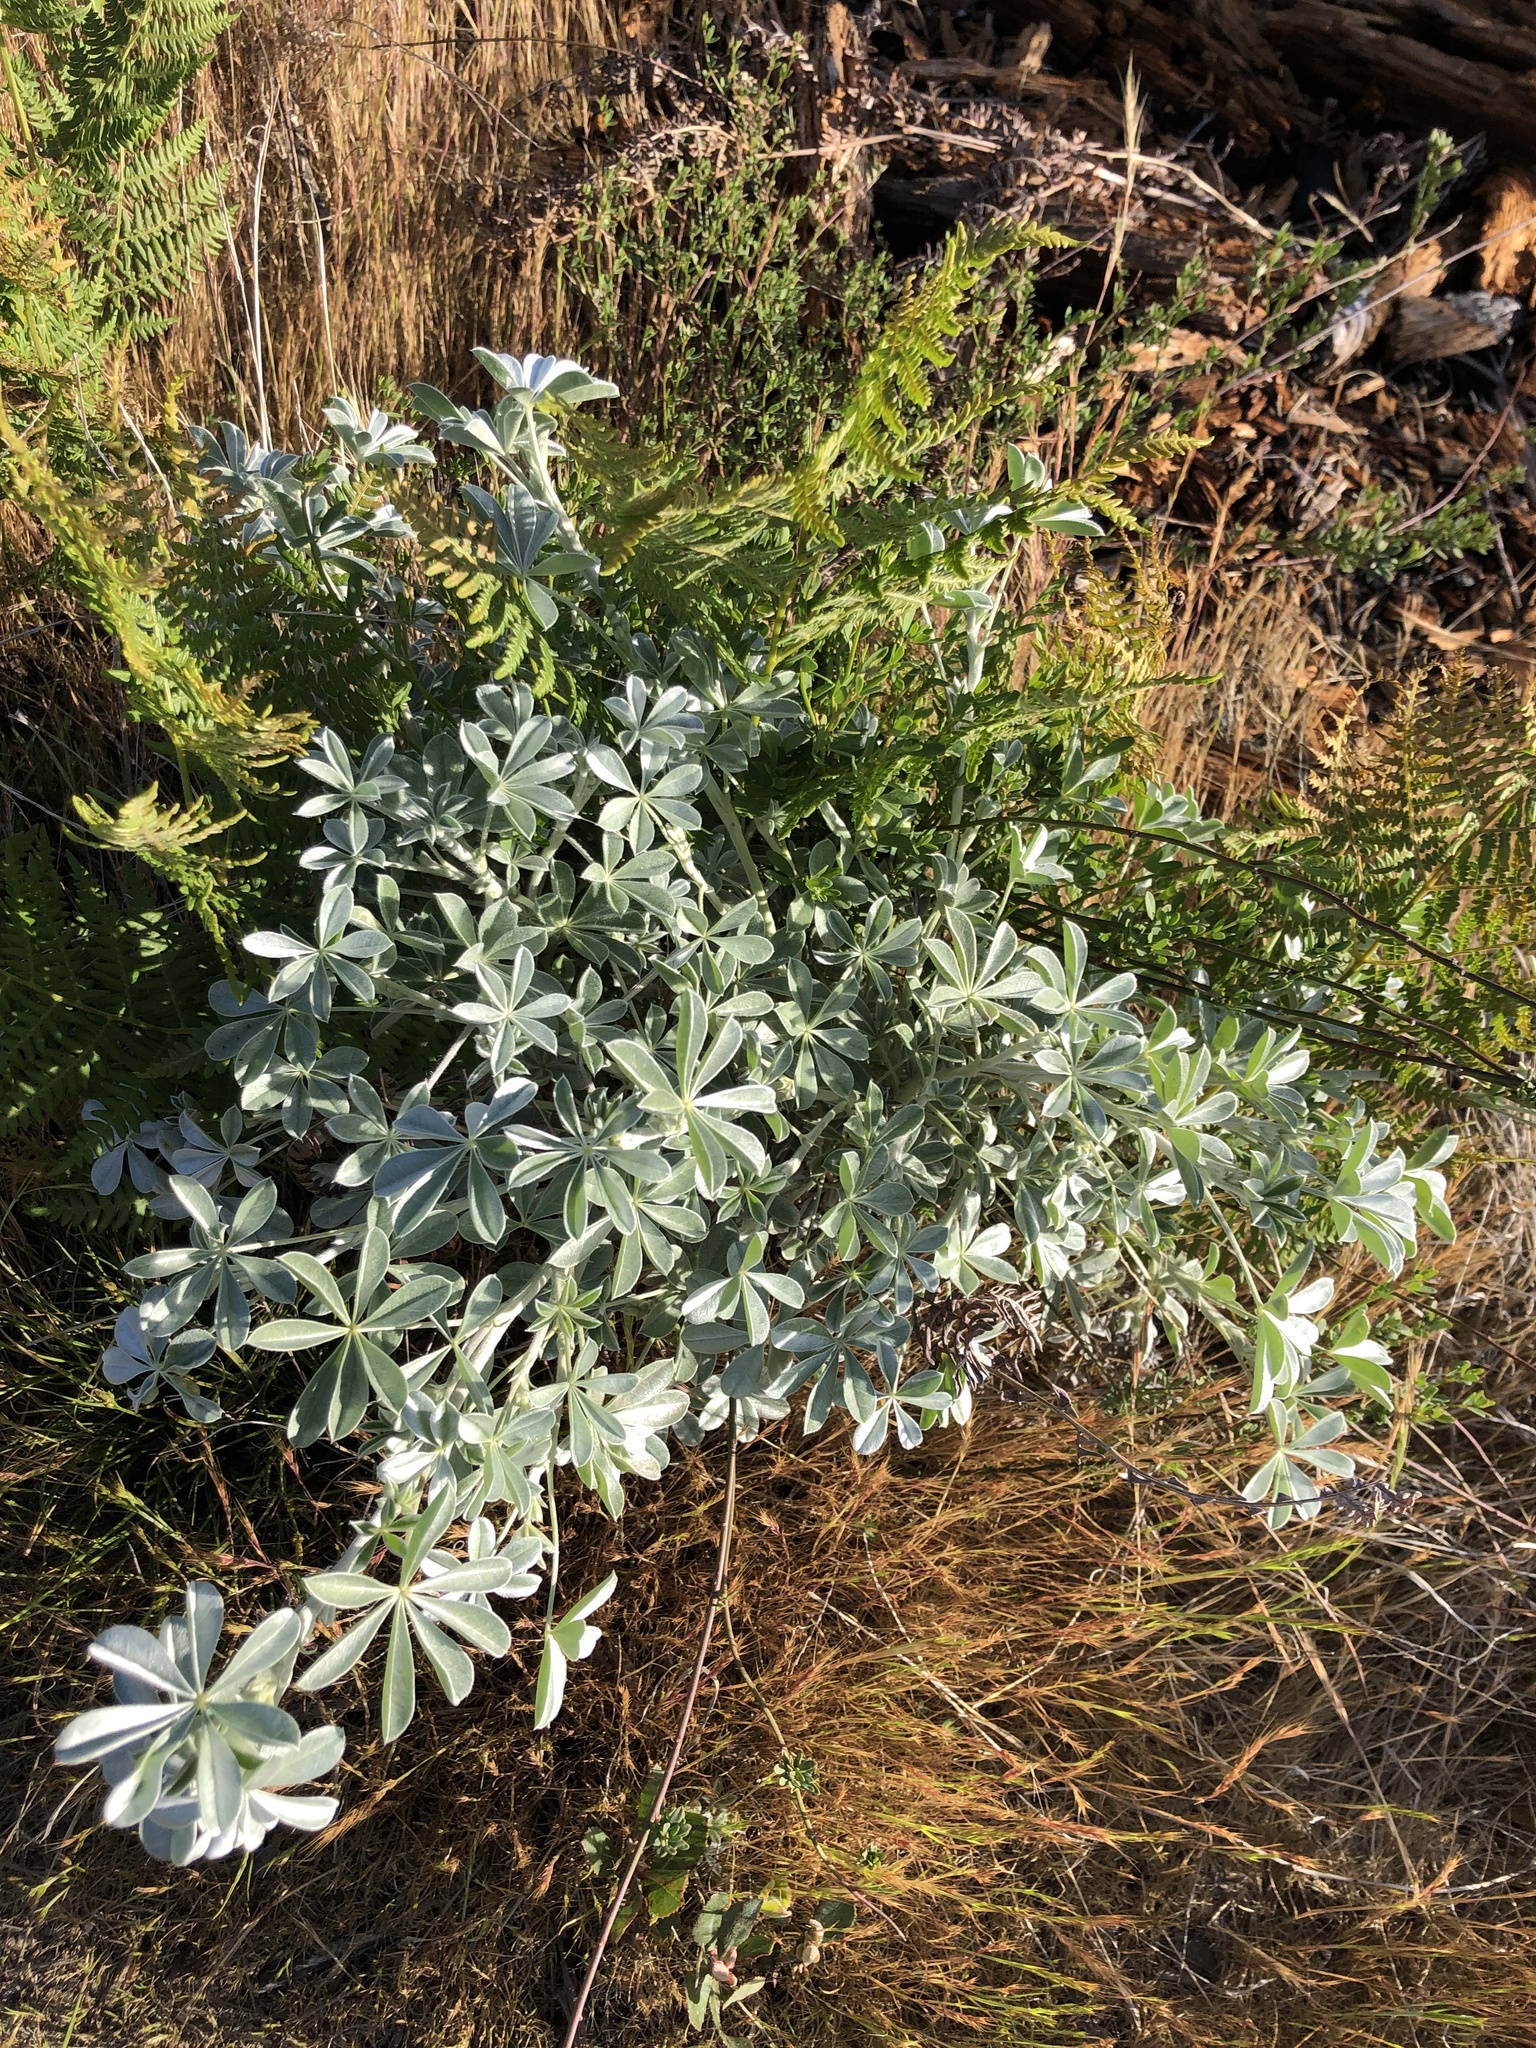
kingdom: Plantae
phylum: Tracheophyta
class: Magnoliopsida
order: Fabales
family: Fabaceae
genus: Lupinus
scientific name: Lupinus albifrons
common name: Foothill lupine
